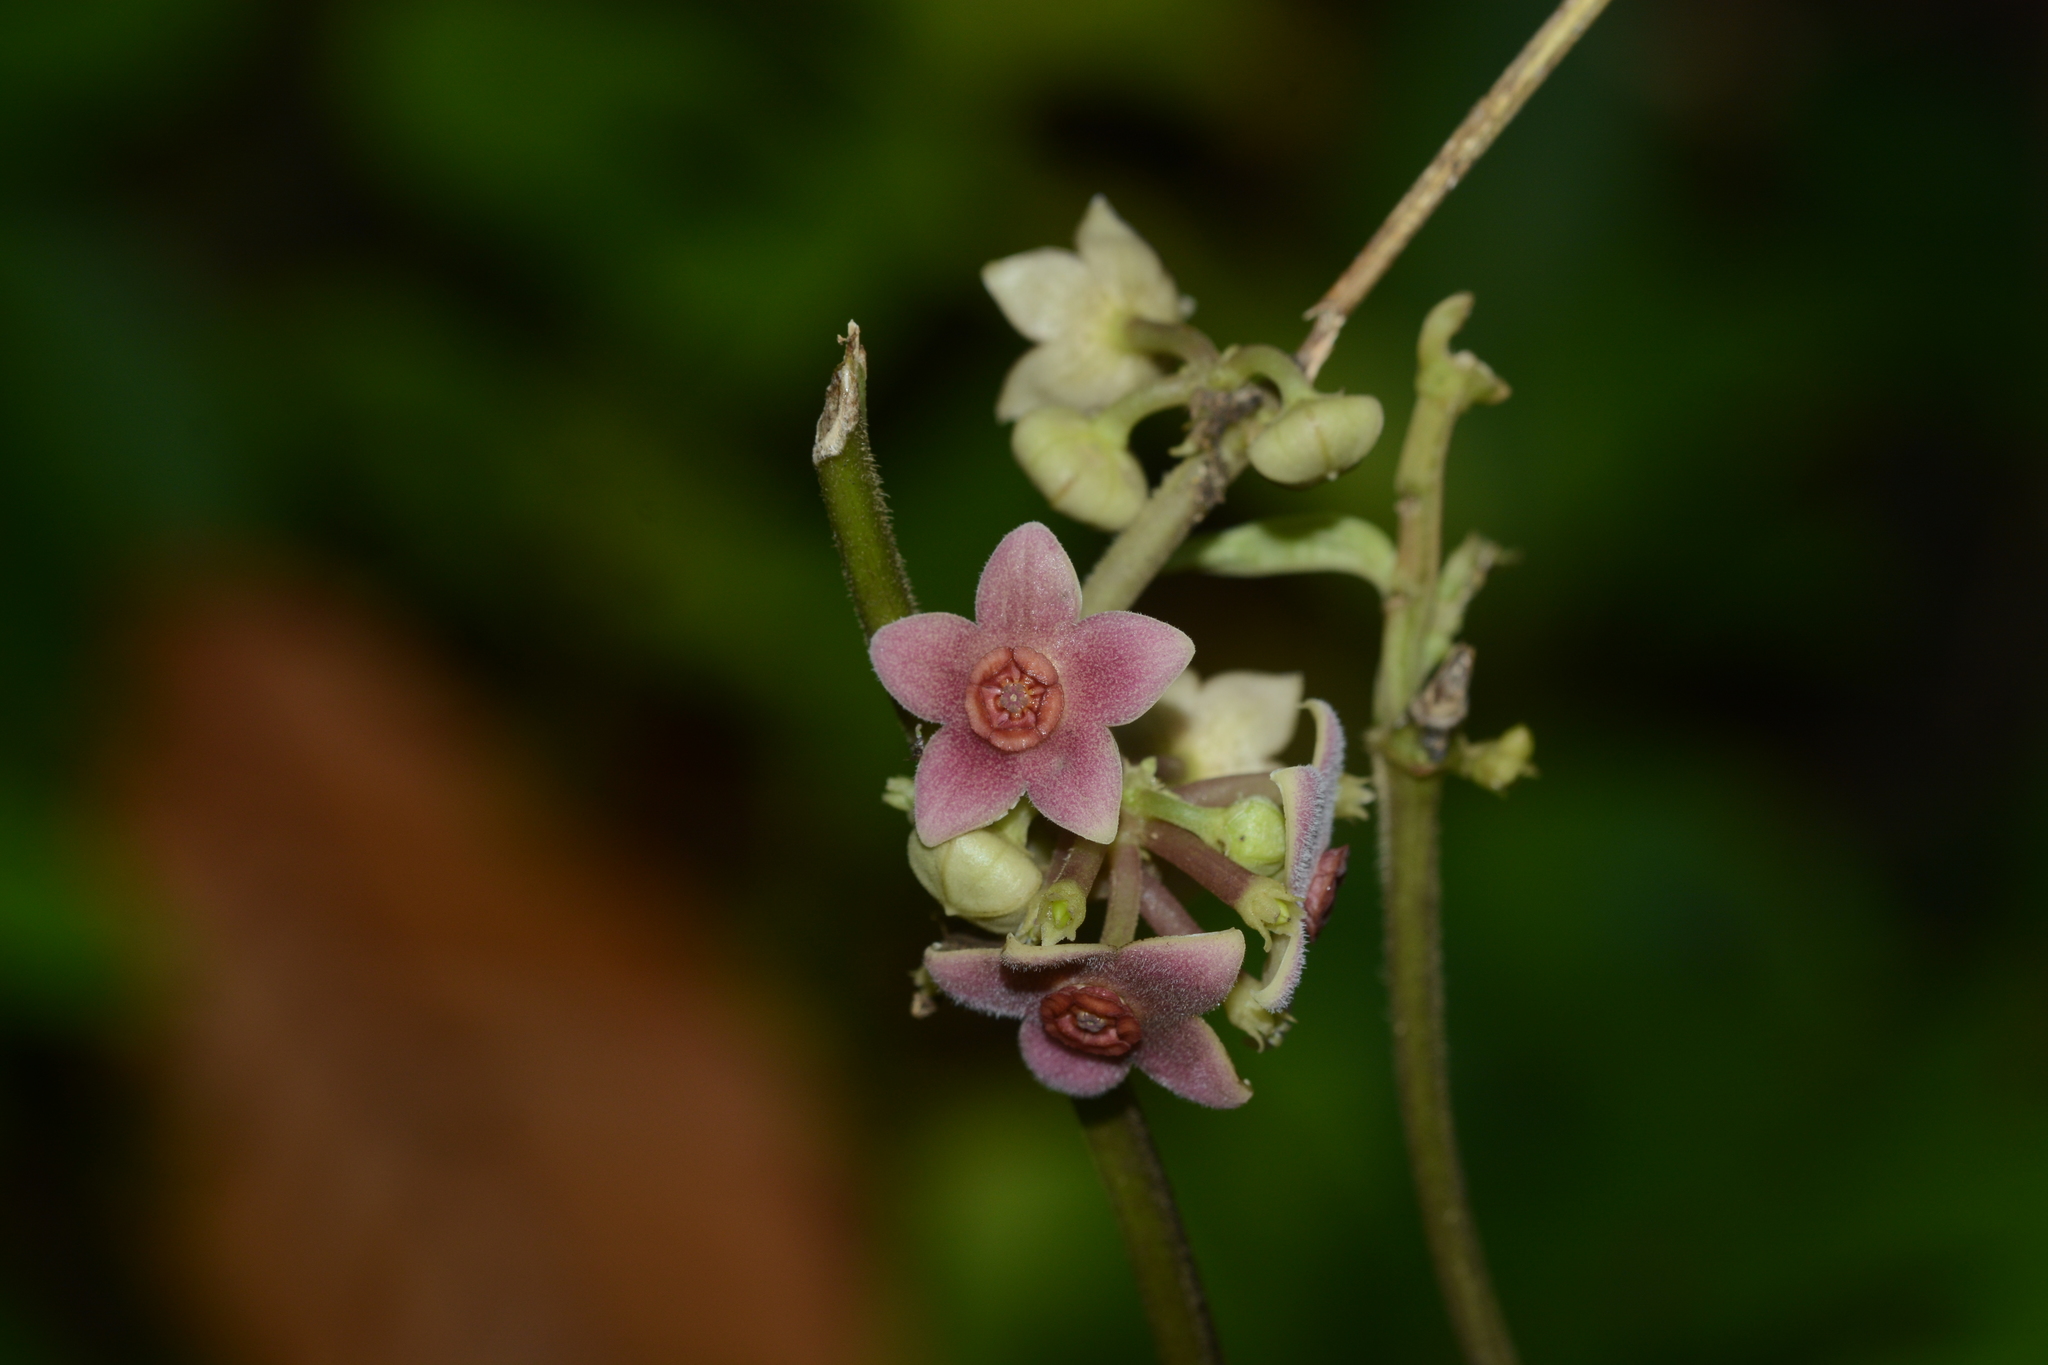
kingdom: Plantae
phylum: Tracheophyta
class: Magnoliopsida
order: Gentianales
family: Apocynaceae
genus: Heterostemma
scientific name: Heterostemma dalzellii
